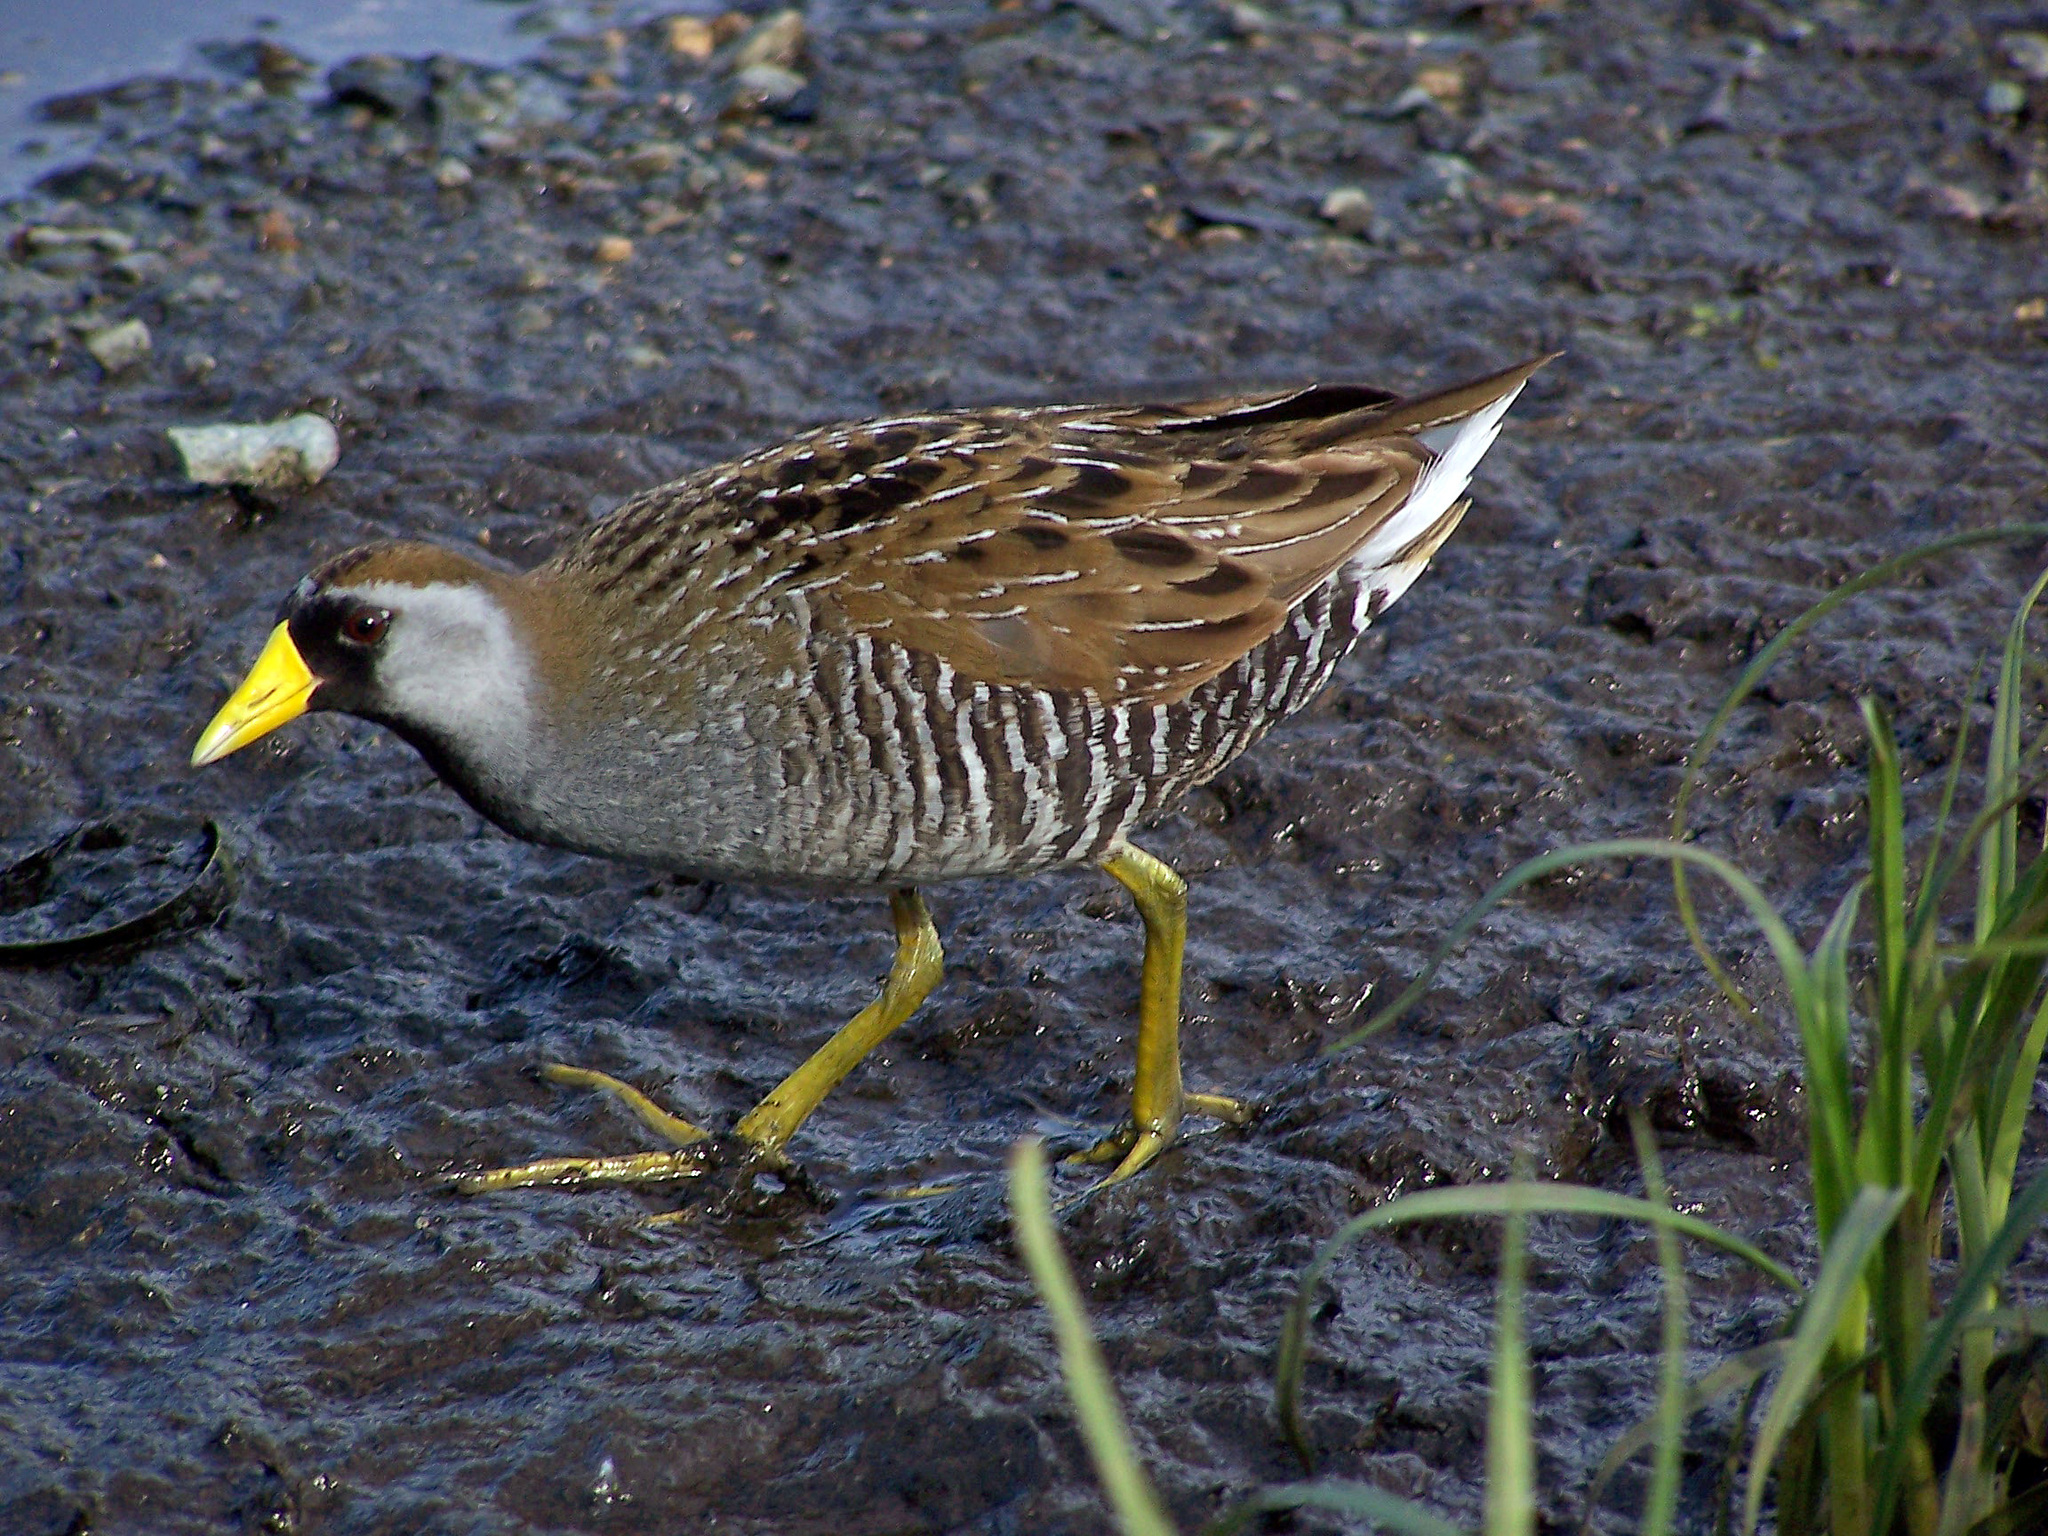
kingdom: Animalia
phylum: Chordata
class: Aves
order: Gruiformes
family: Rallidae
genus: Porzana
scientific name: Porzana carolina
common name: Sora
